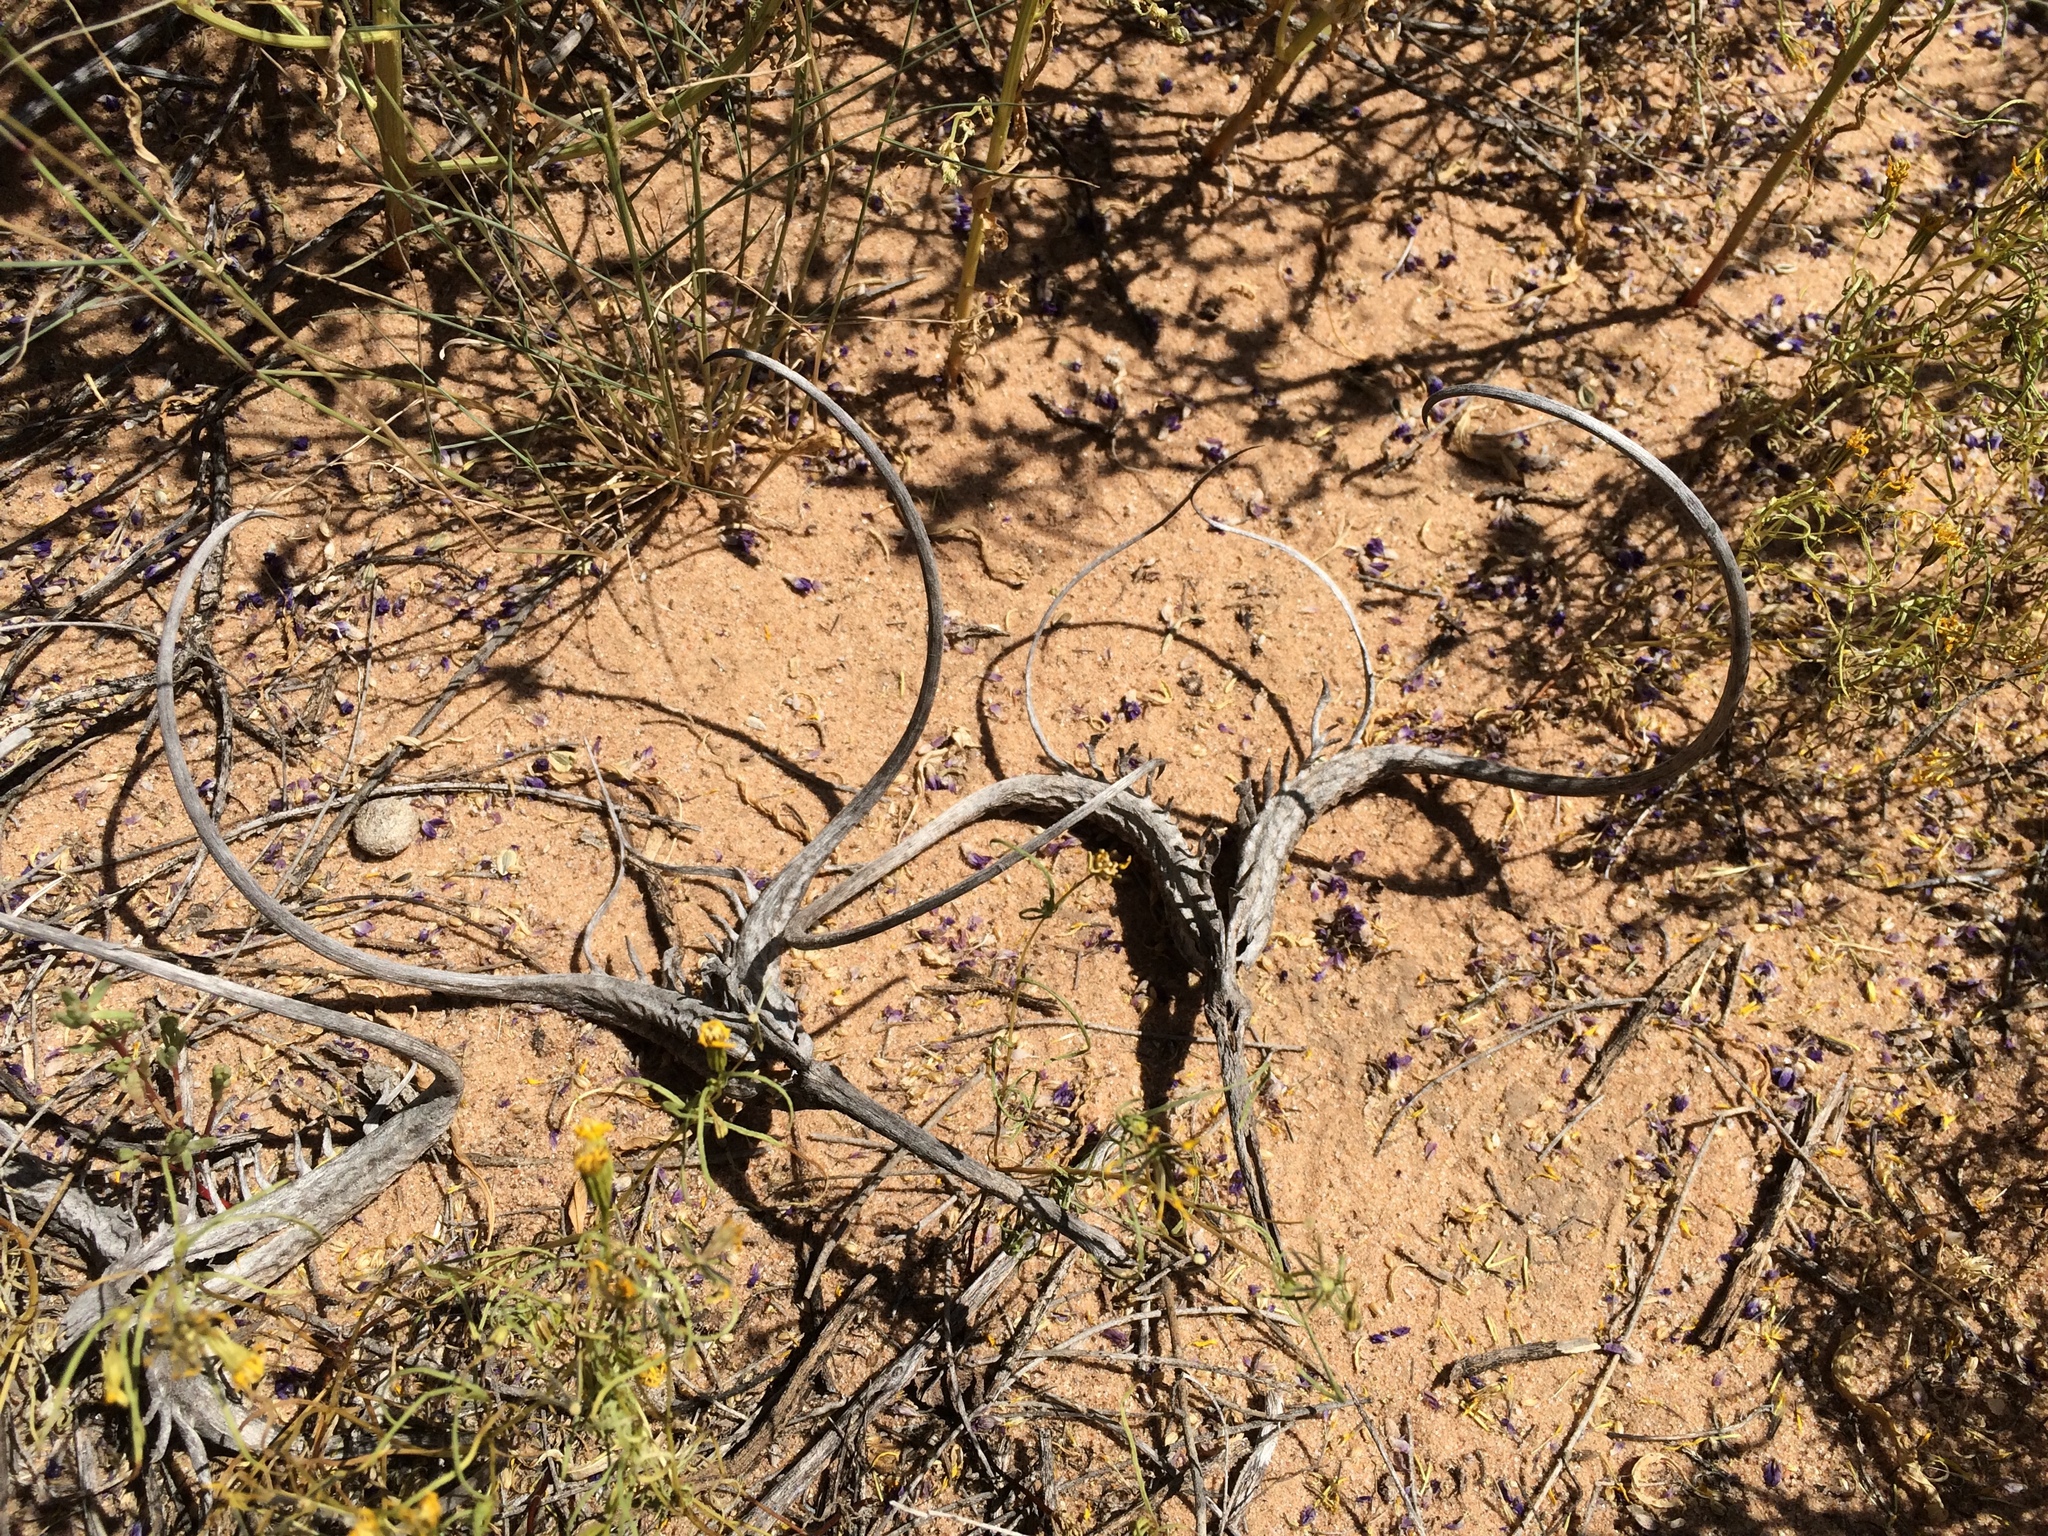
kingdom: Plantae
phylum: Tracheophyta
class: Magnoliopsida
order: Lamiales
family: Martyniaceae
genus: Proboscidea
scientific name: Proboscidea althaeifolia
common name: Desert unicorn-plant
